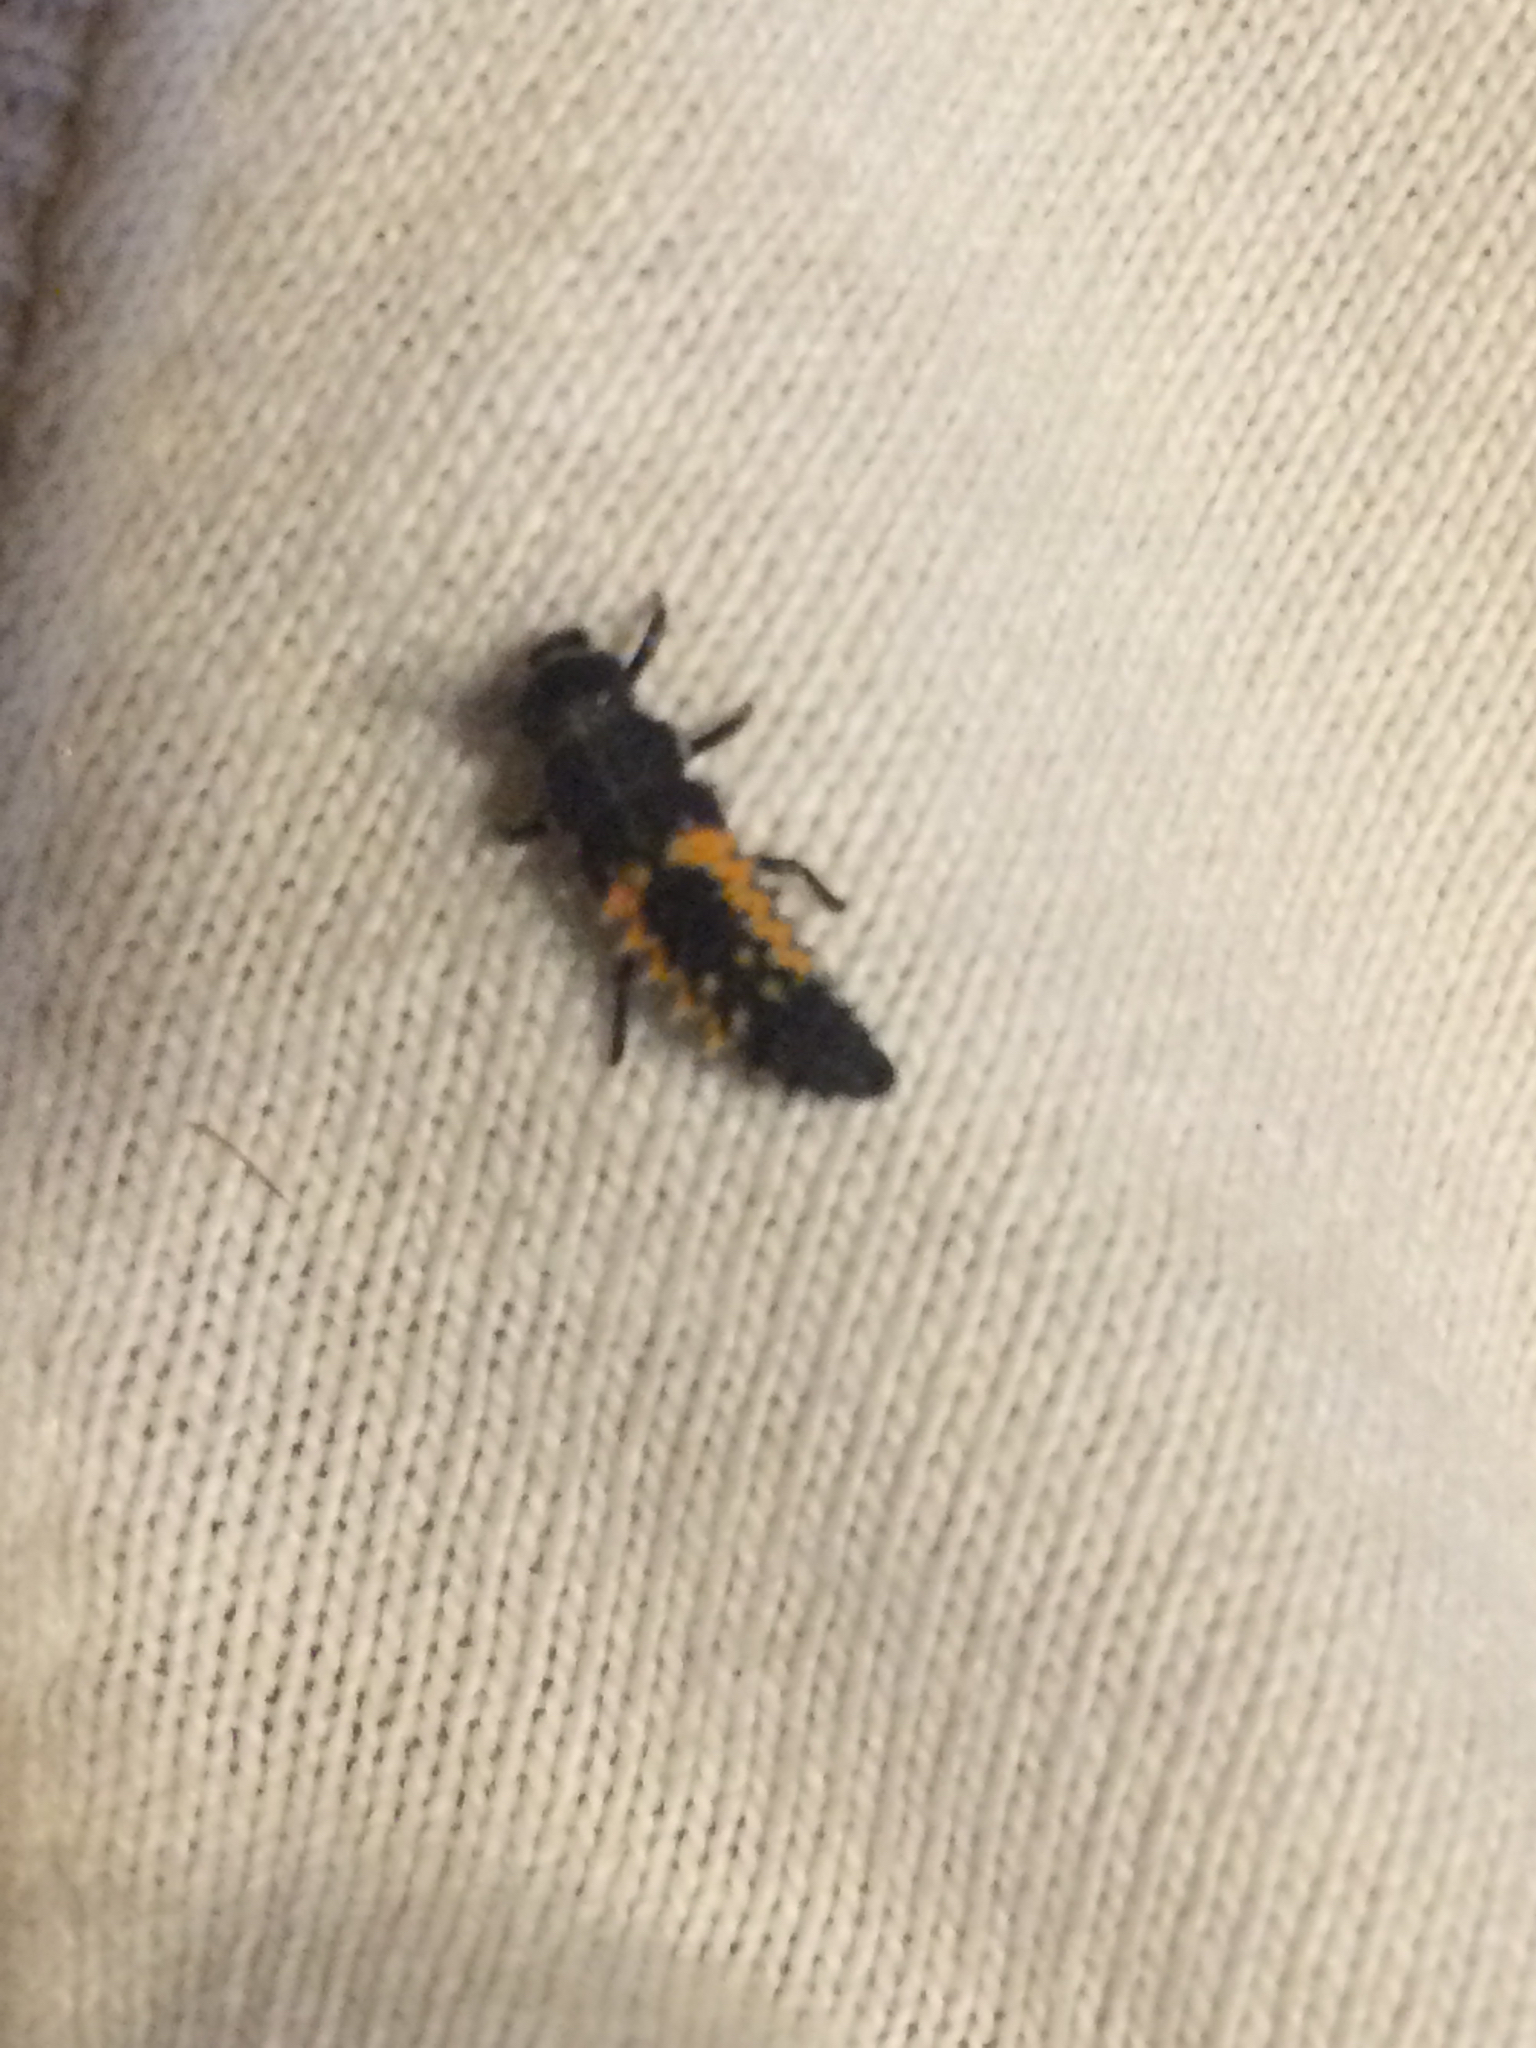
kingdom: Animalia
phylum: Arthropoda
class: Insecta
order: Coleoptera
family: Coccinellidae
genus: Harmonia
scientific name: Harmonia axyridis
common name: Harlequin ladybird
